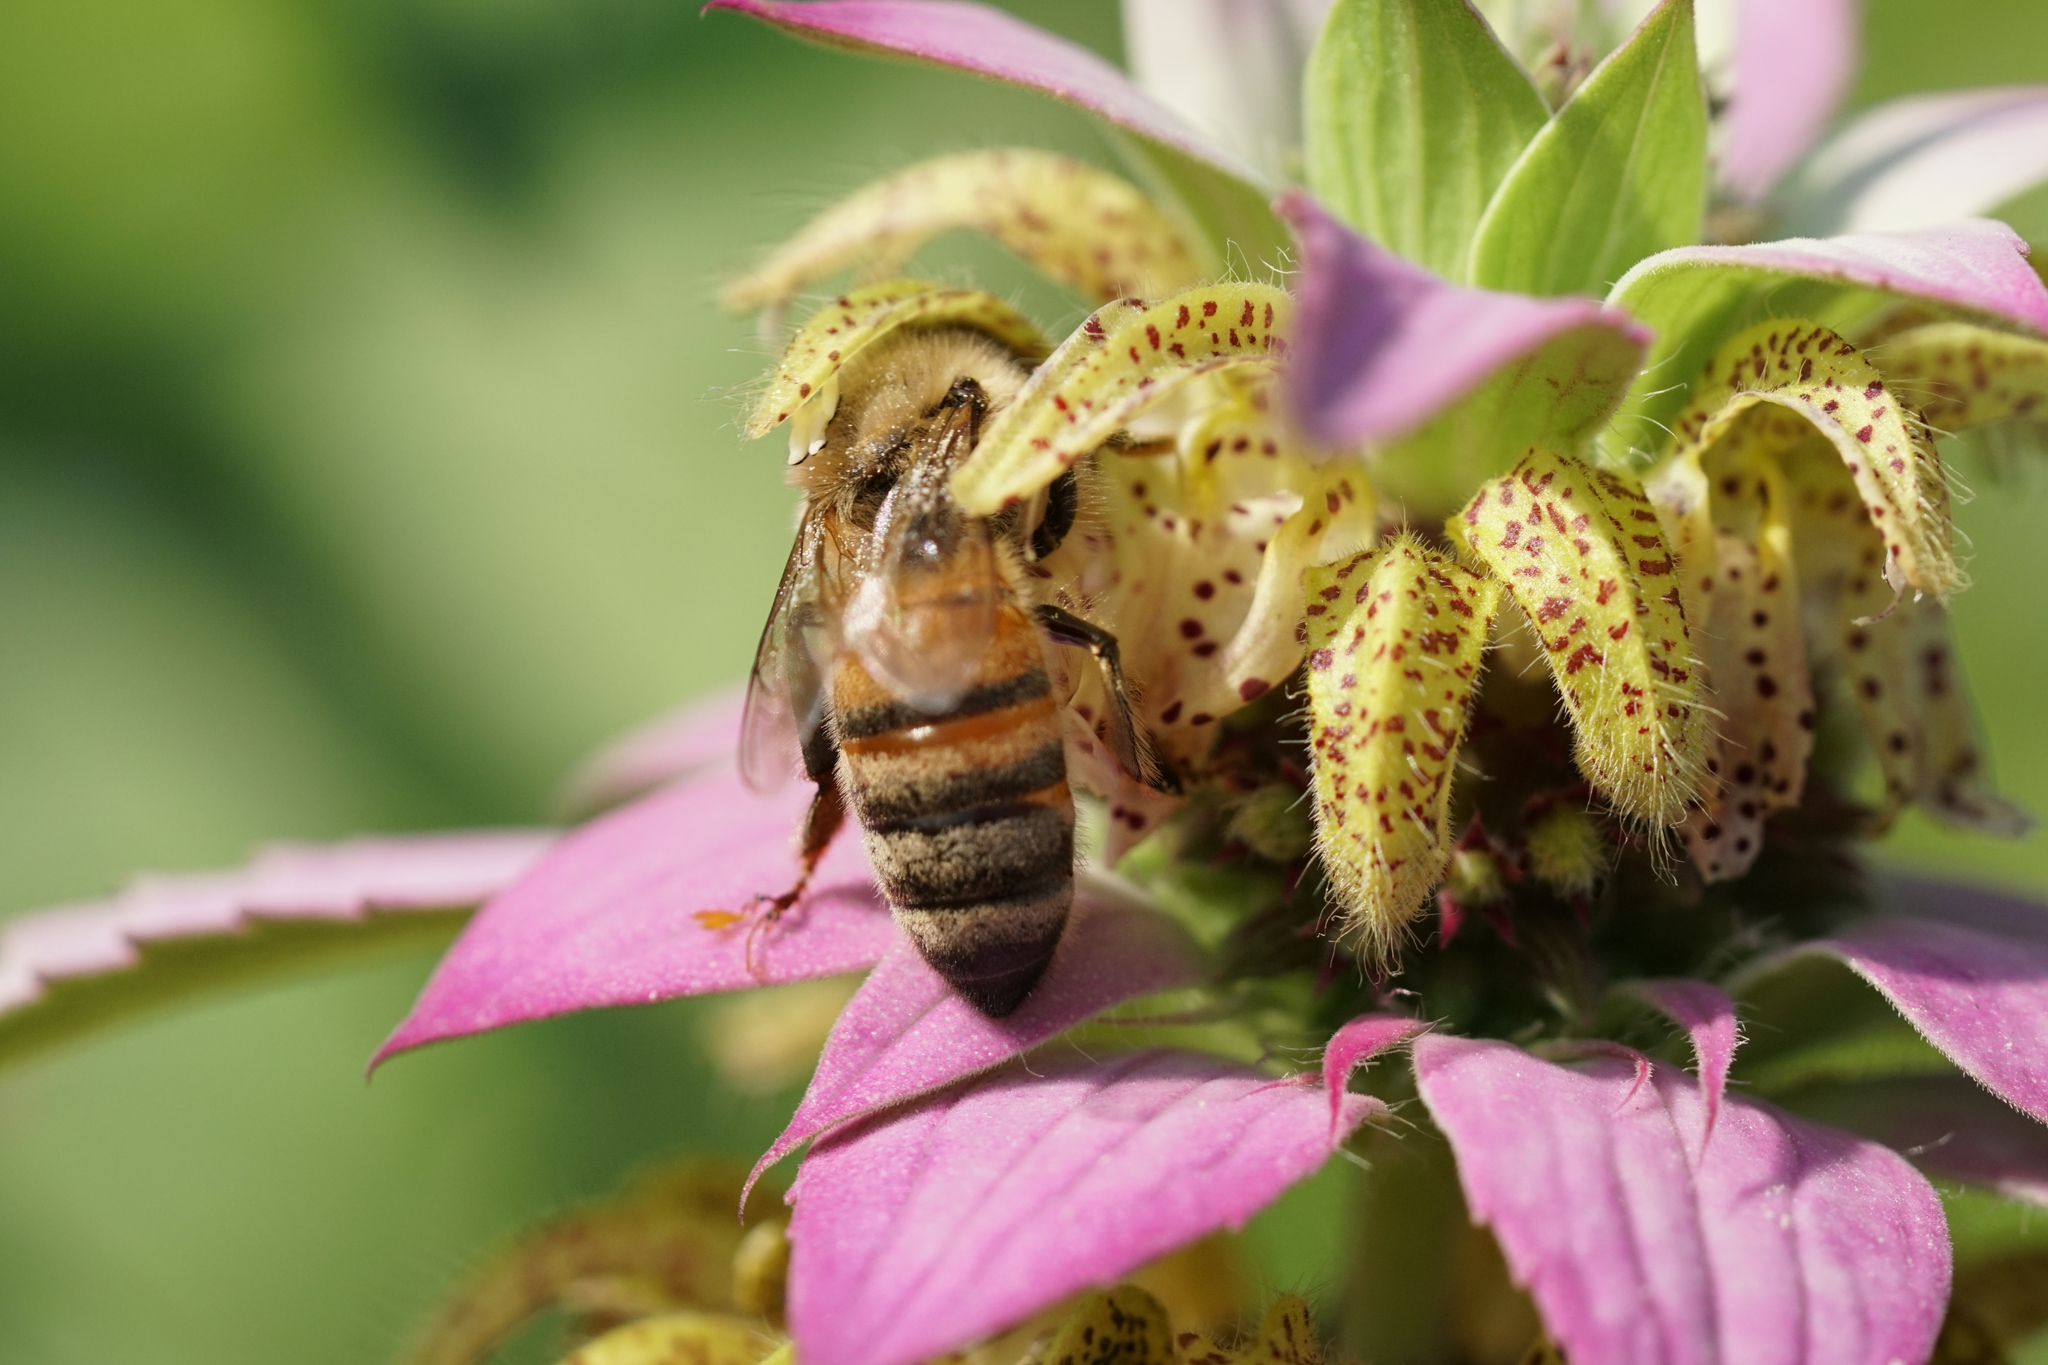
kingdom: Animalia
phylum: Arthropoda
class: Insecta
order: Hymenoptera
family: Apidae
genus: Apis
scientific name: Apis mellifera
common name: Honey bee
